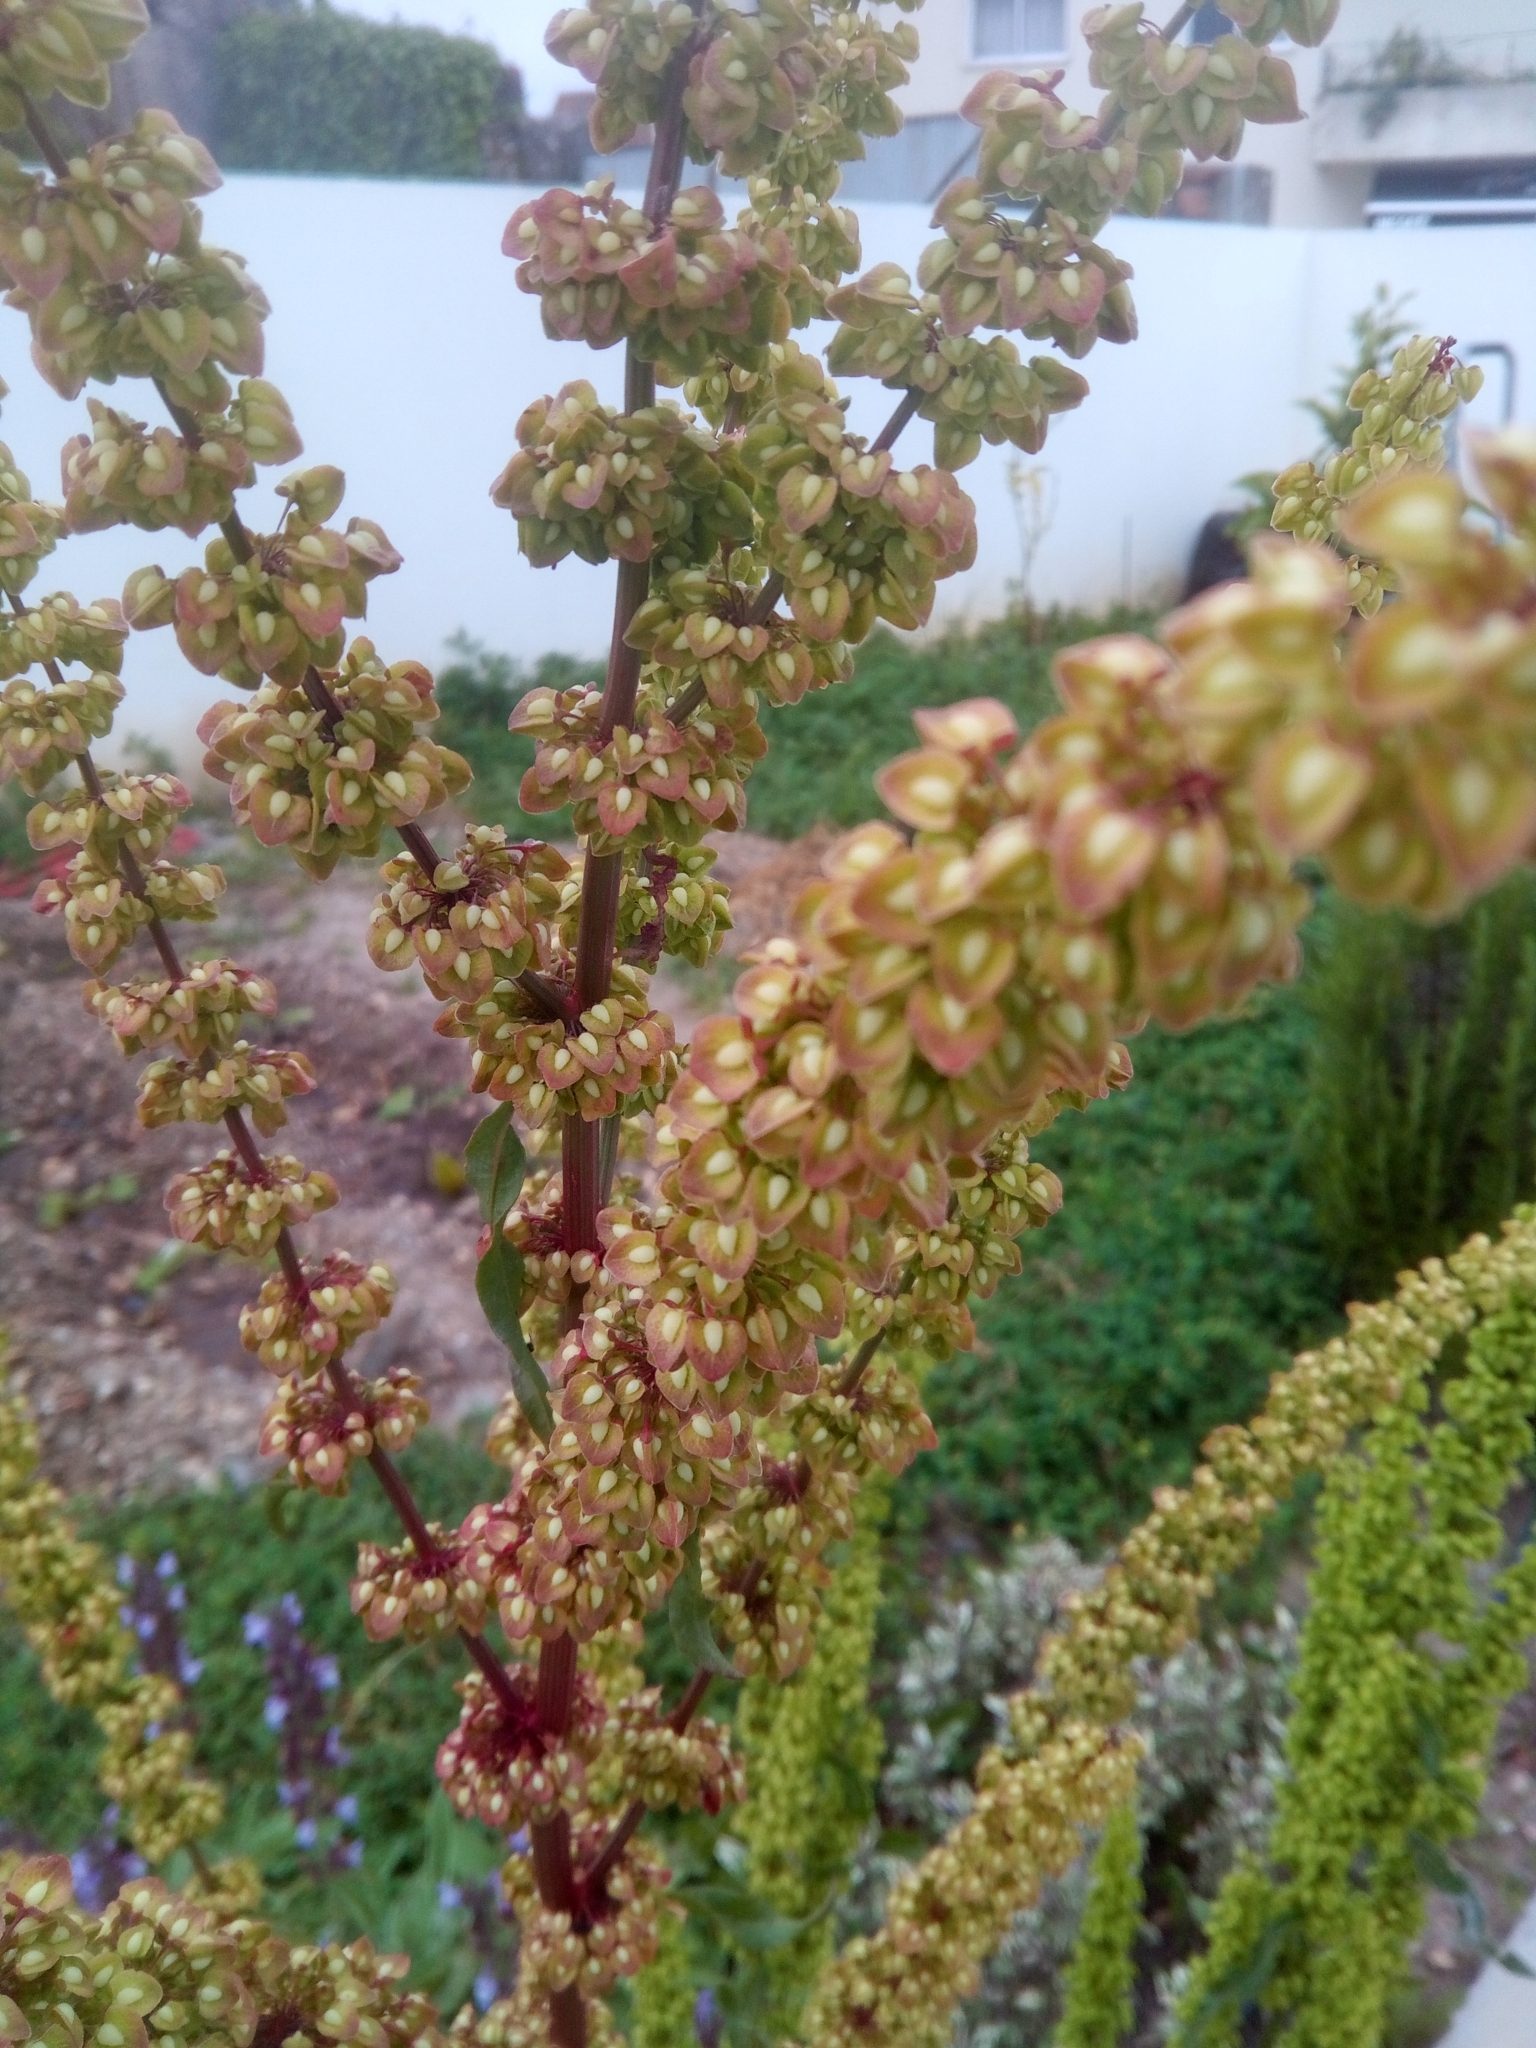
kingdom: Plantae
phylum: Tracheophyta
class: Magnoliopsida
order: Caryophyllales
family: Polygonaceae
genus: Rumex
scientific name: Rumex crispus
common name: Curled dock
